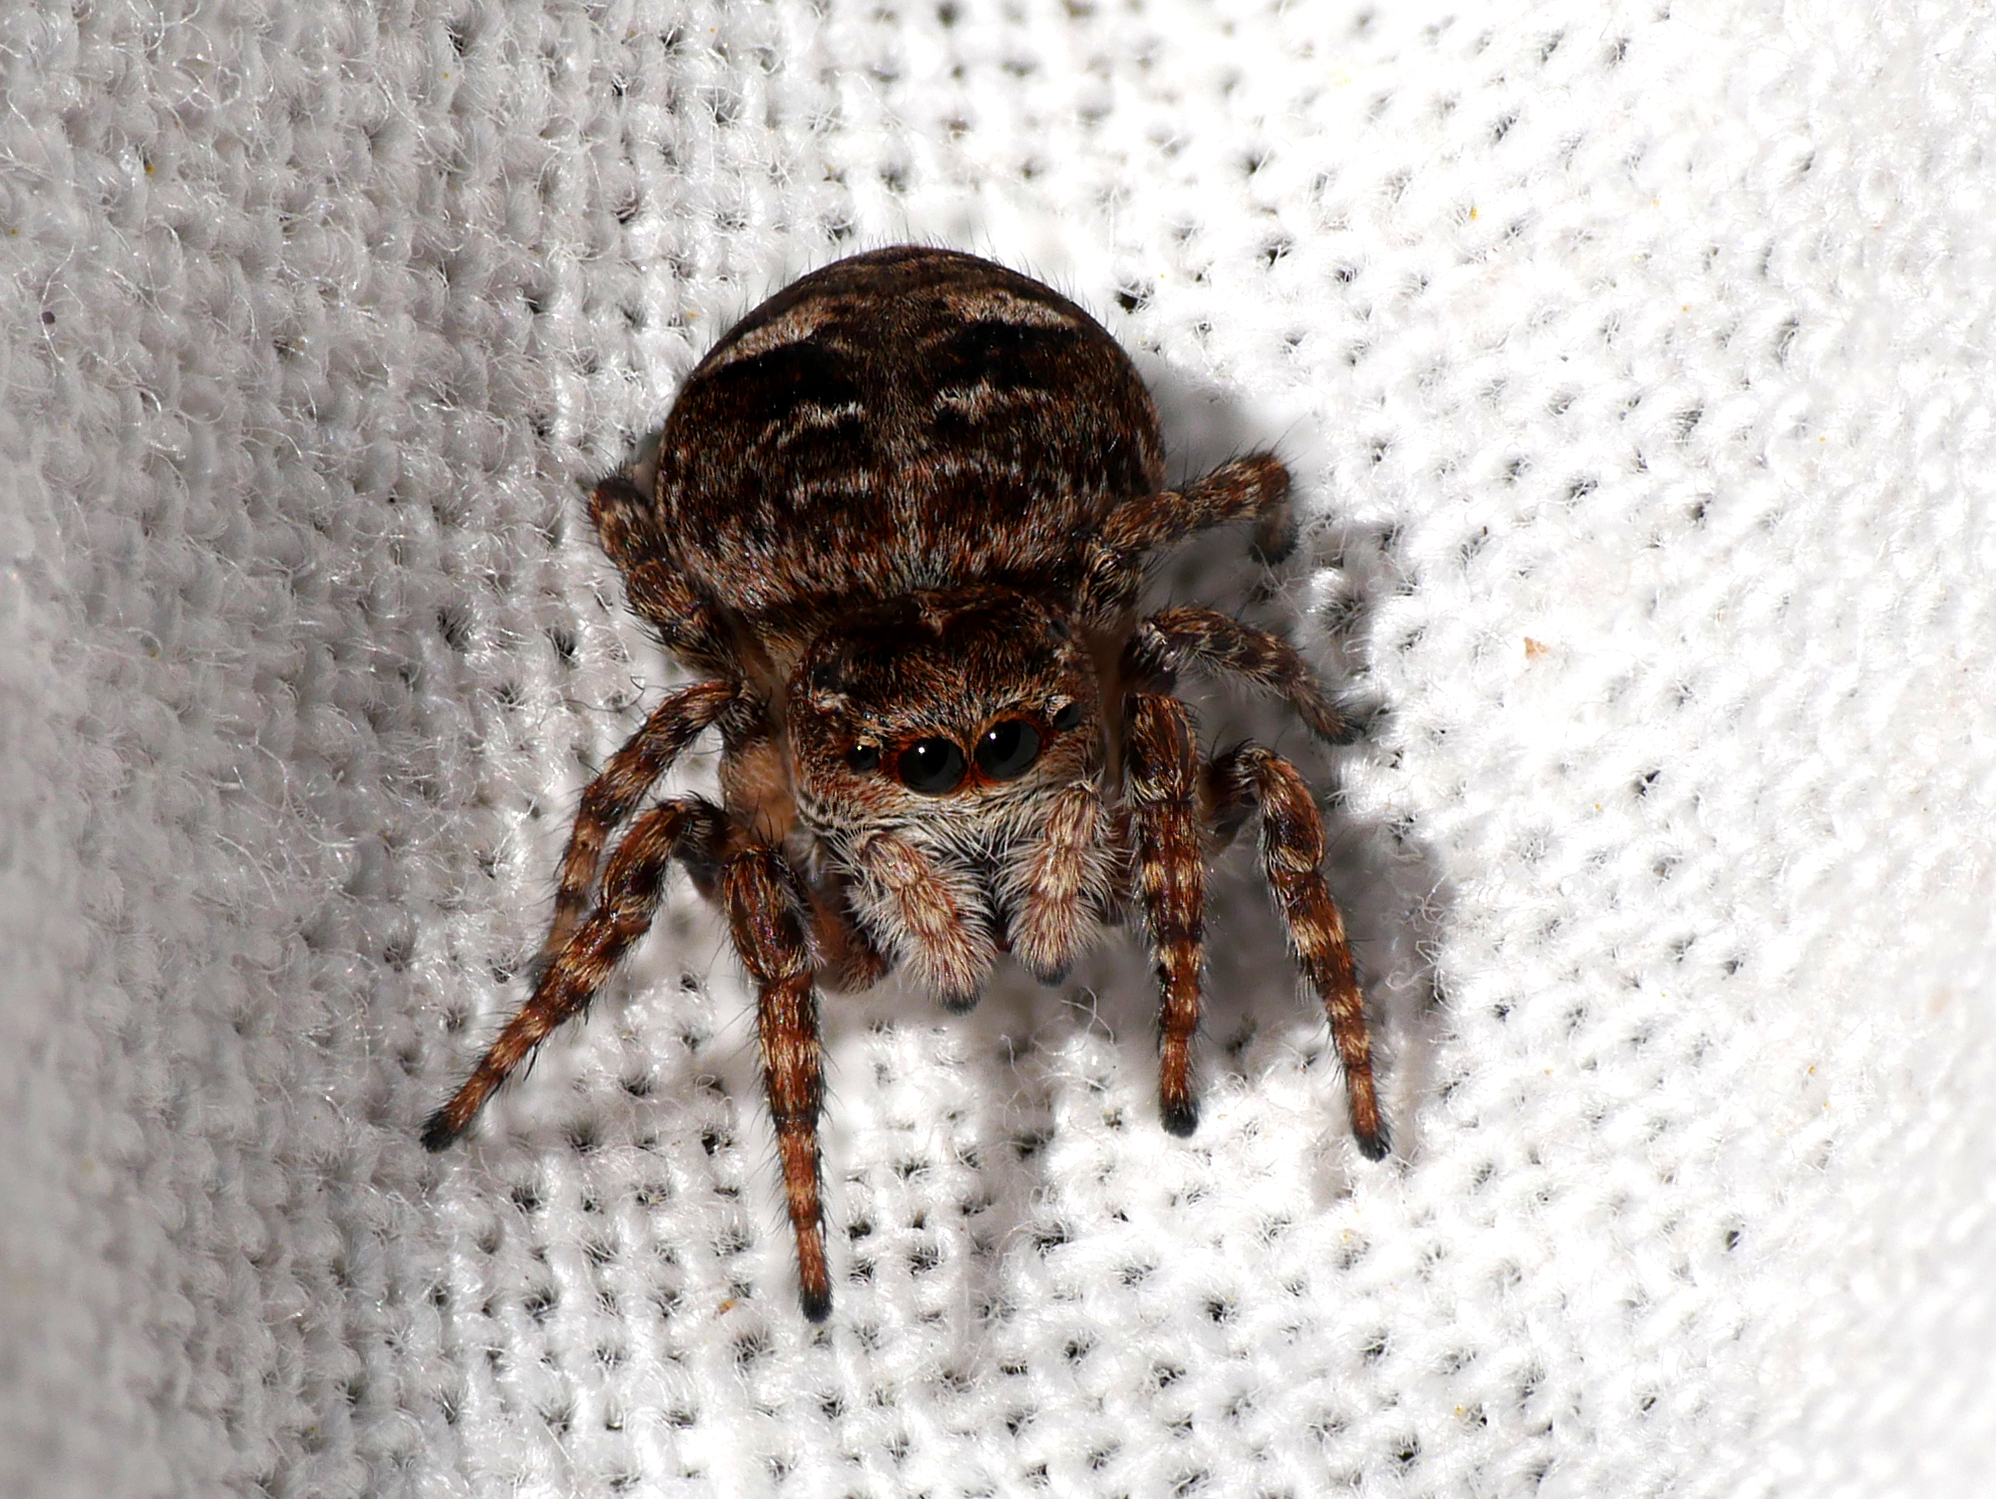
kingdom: Animalia
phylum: Arthropoda
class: Arachnida
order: Araneae
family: Salticidae
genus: Attulus
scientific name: Attulus floricola
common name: Flower jumping spider
